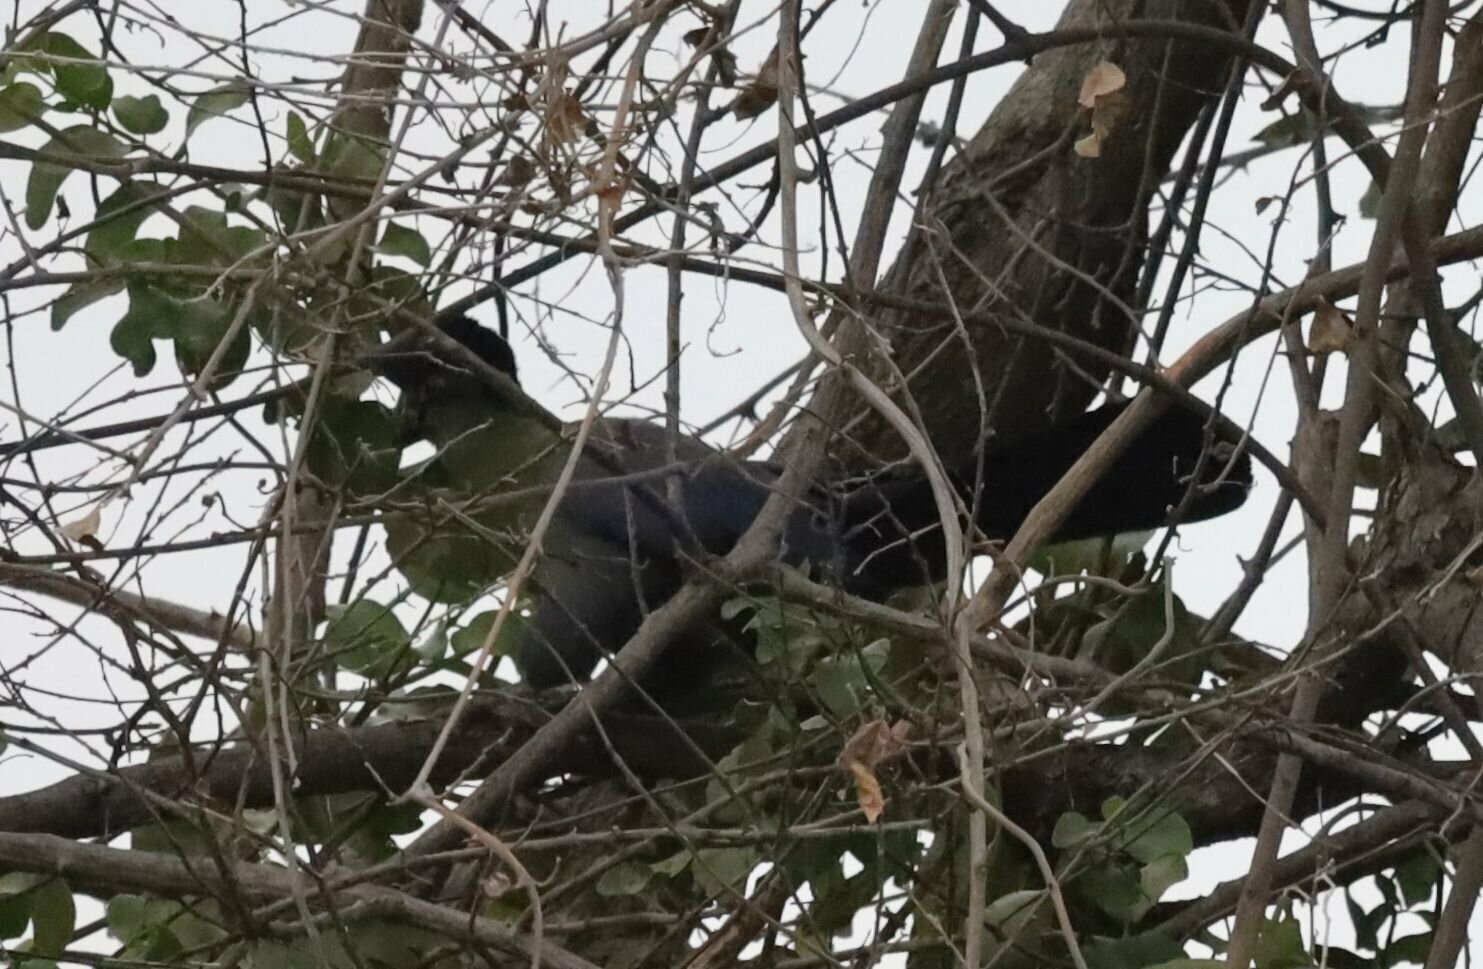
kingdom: Animalia
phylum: Chordata
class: Aves
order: Musophagiformes
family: Musophagidae
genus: Tauraco
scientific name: Tauraco porphyreolophus
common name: Purple-crested turaco
